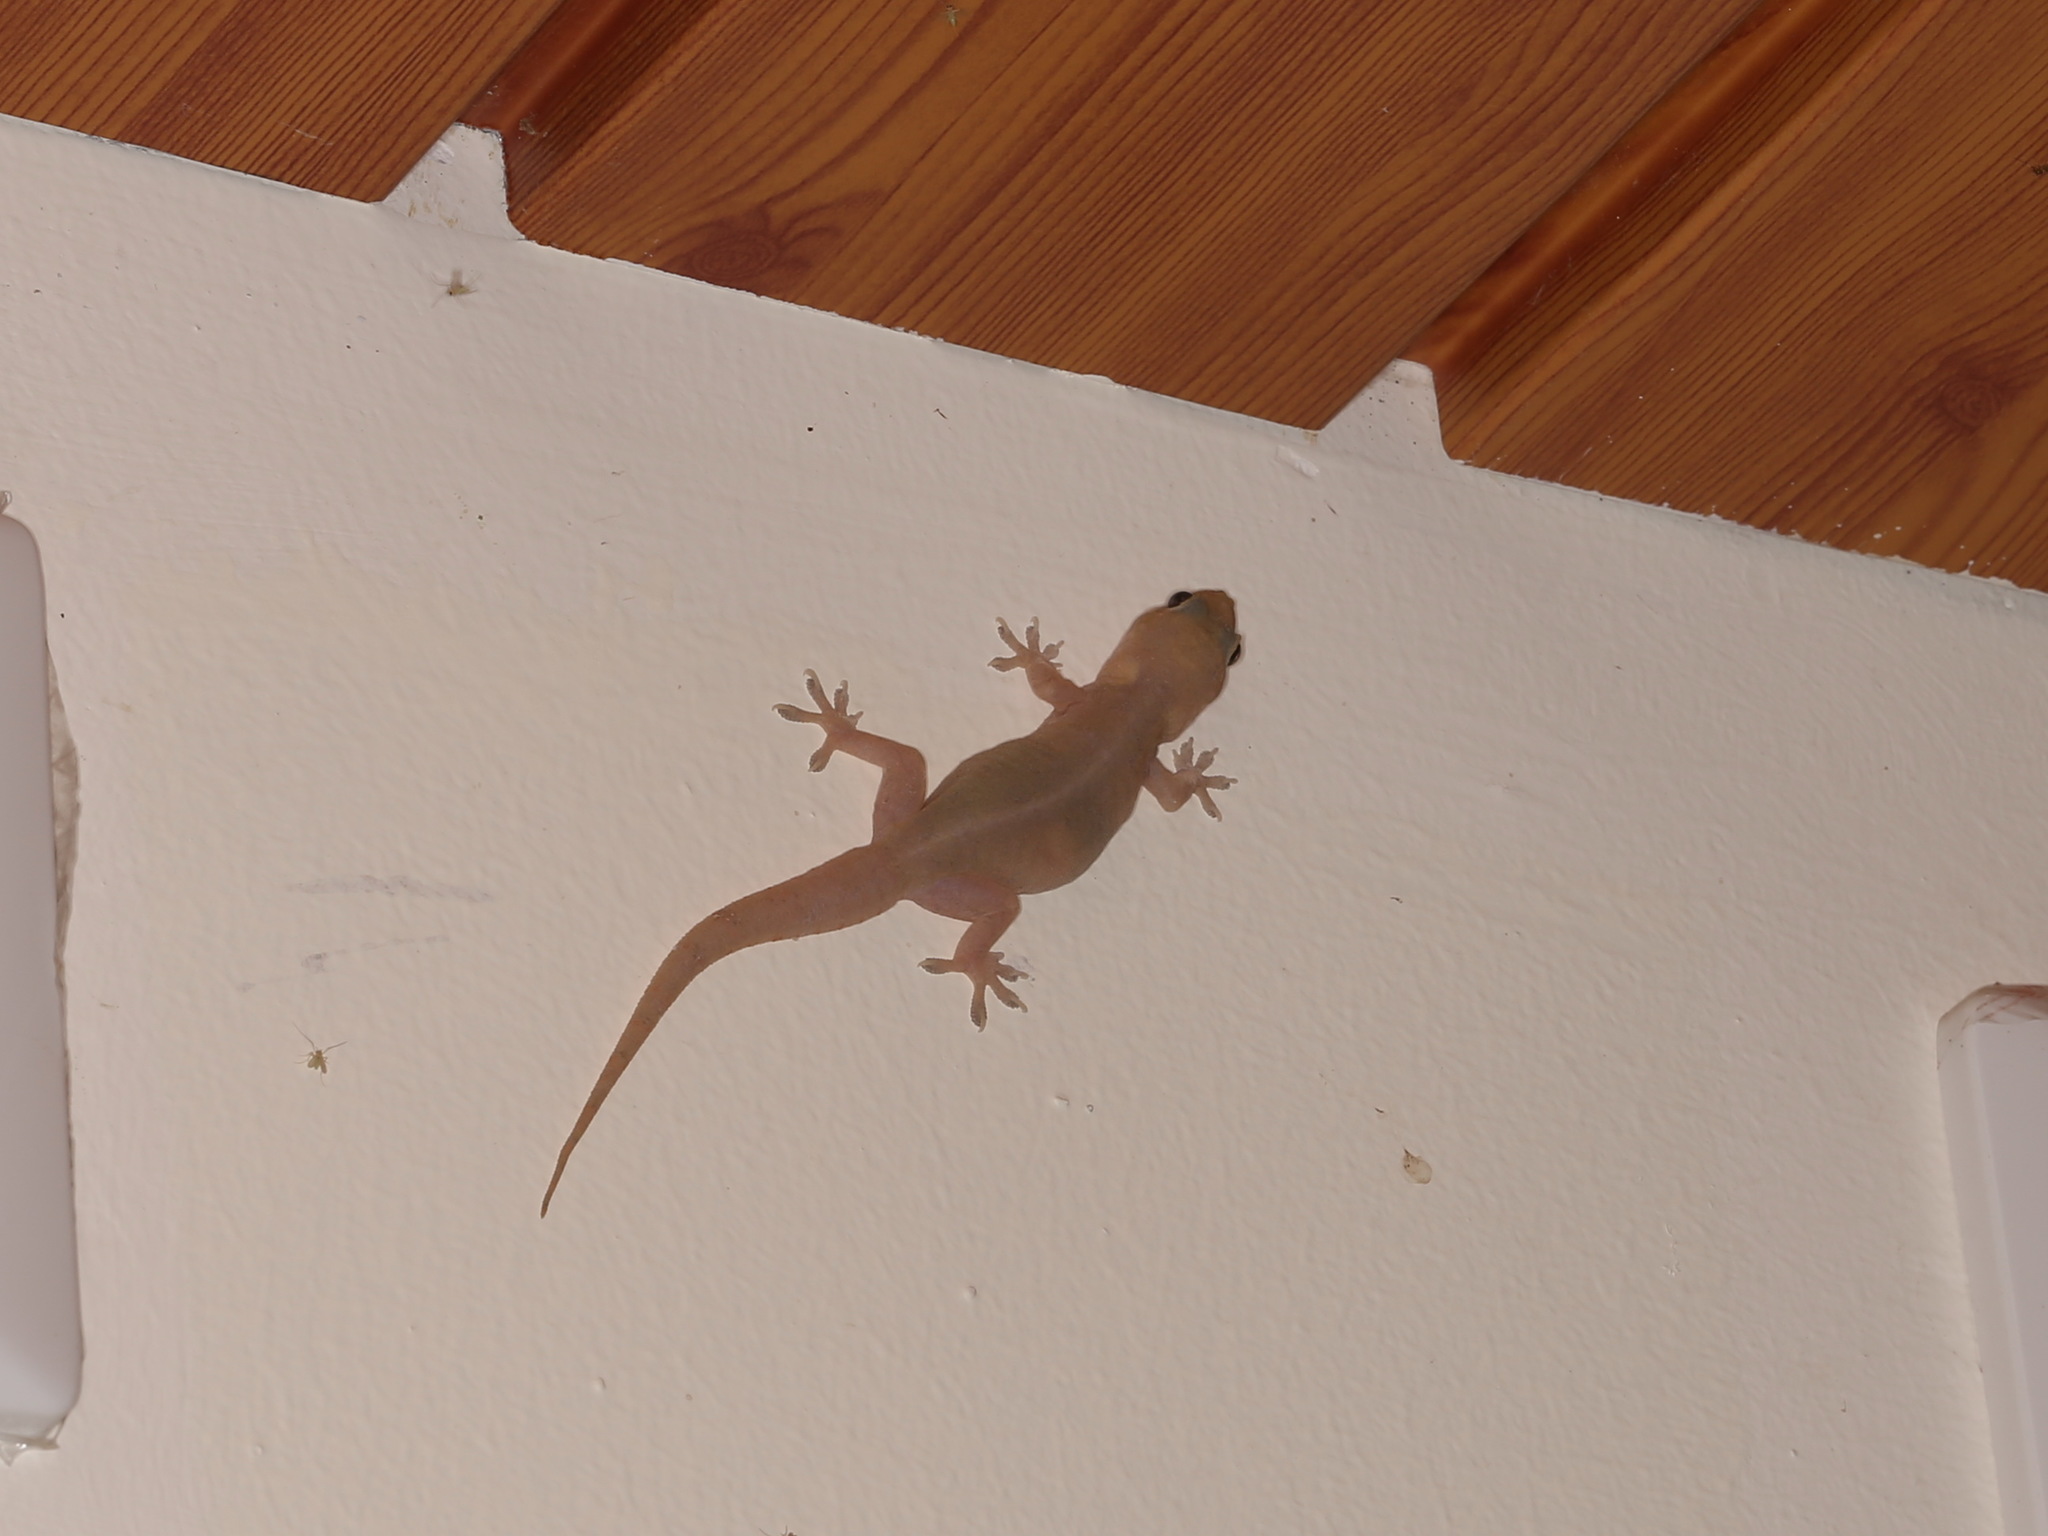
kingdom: Animalia
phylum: Chordata
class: Squamata
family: Gekkonidae
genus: Hemidactylus
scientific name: Hemidactylus bowringii
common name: Oriental leaf-toed gecko
